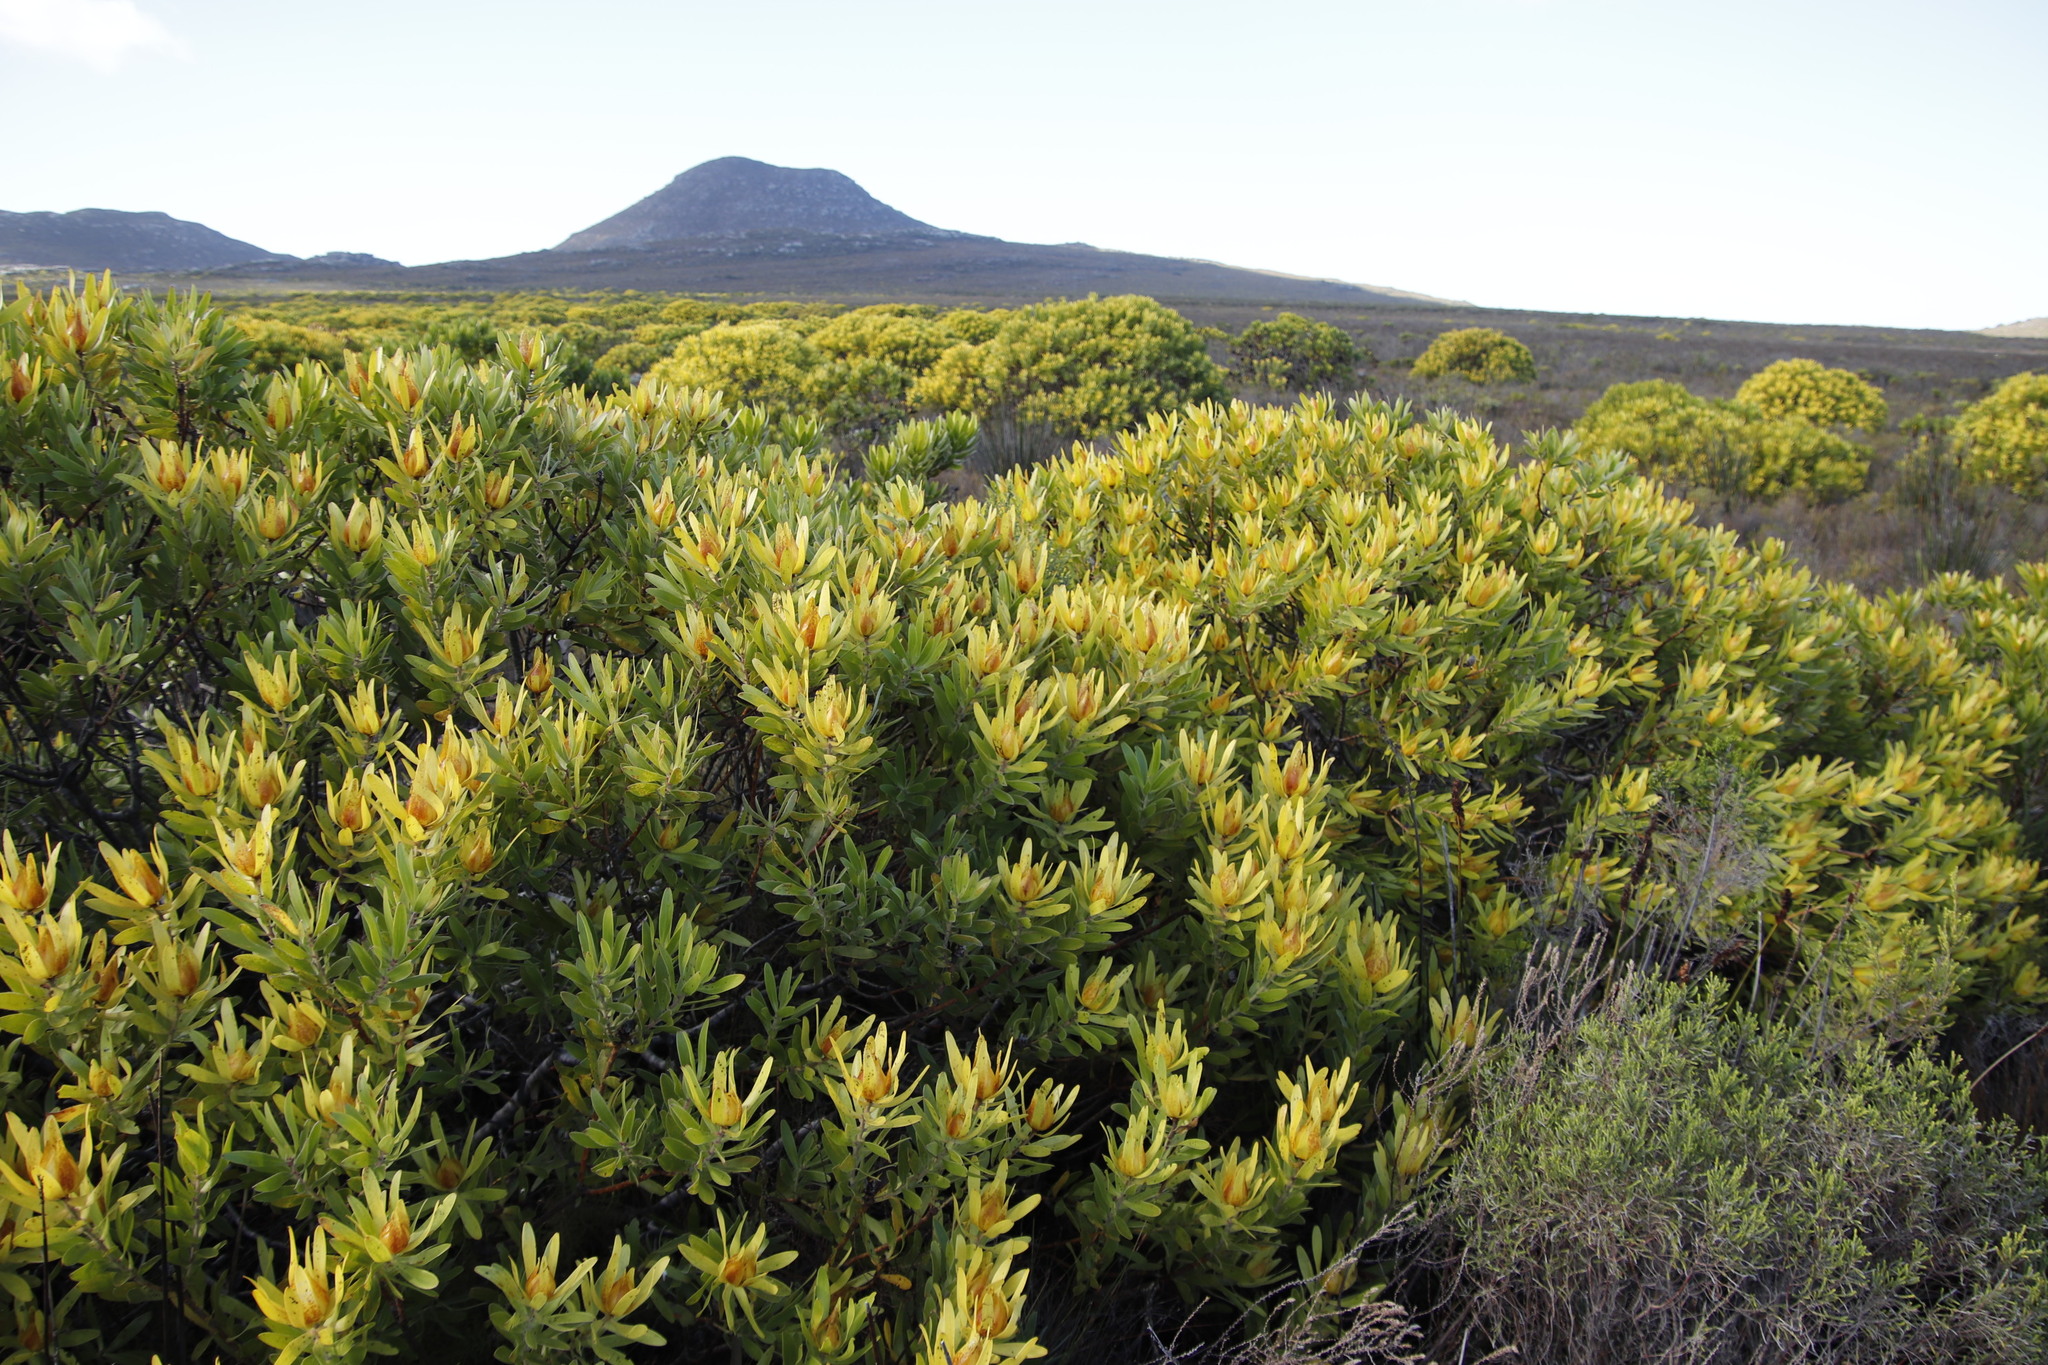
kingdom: Plantae
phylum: Tracheophyta
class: Magnoliopsida
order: Proteales
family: Proteaceae
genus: Leucadendron
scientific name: Leucadendron laureolum
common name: Golden sunshinebush
